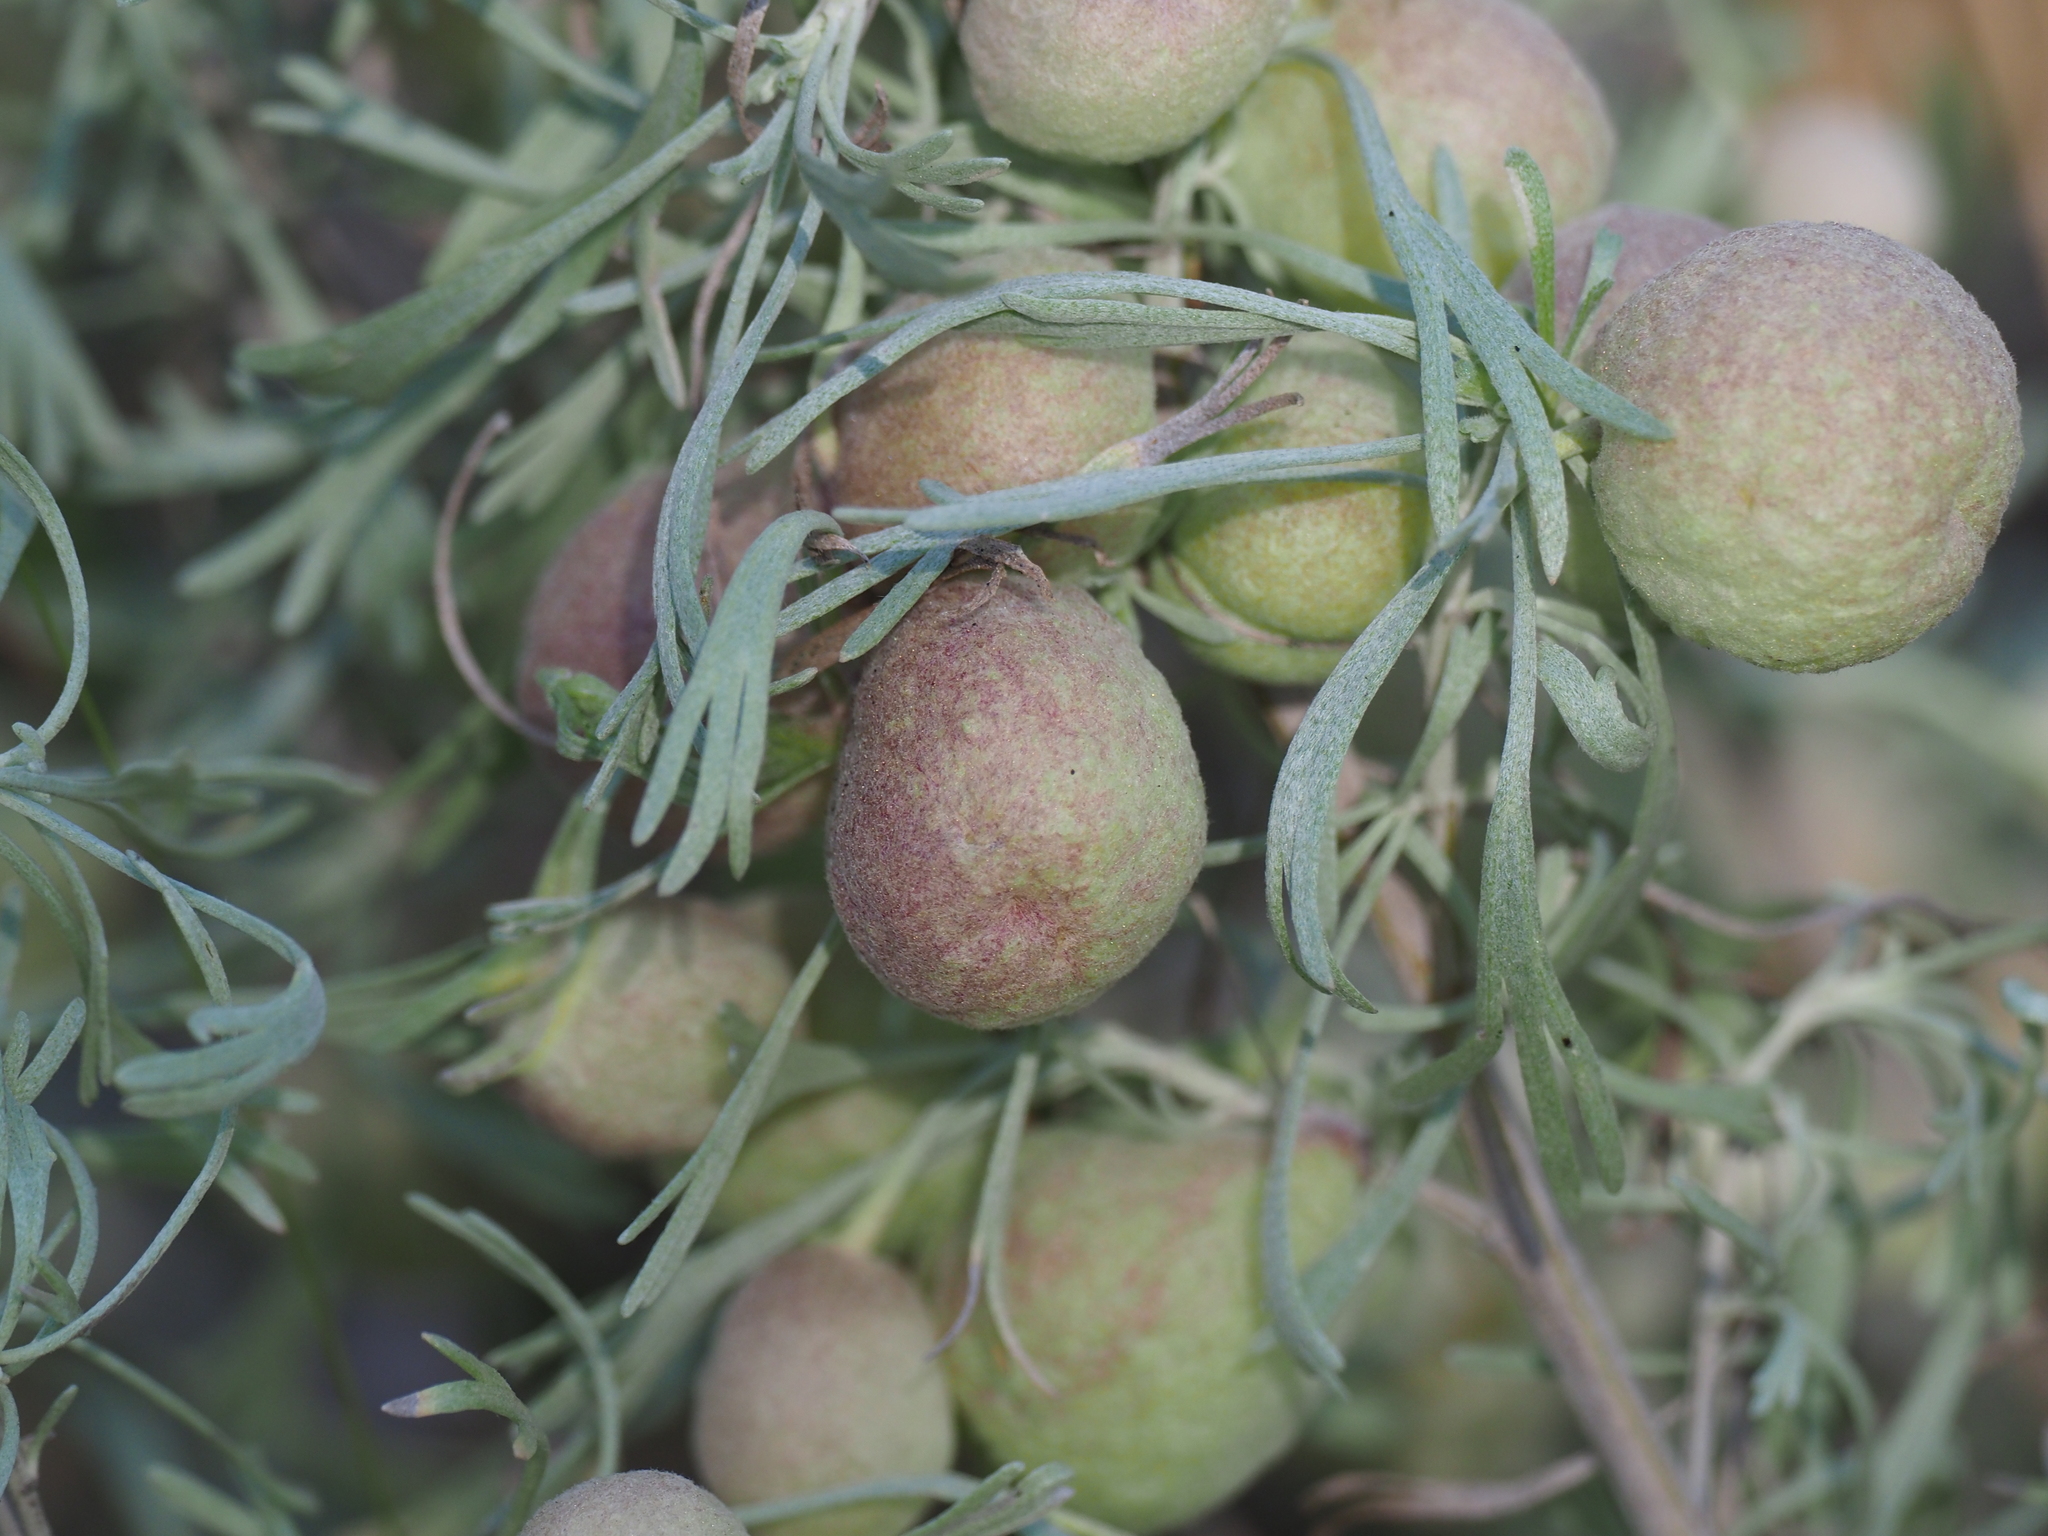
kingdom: Plantae
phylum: Tracheophyta
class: Magnoliopsida
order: Asterales
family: Asteraceae
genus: Artemisia
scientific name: Artemisia tripartita
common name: Three-tip sagebrush
